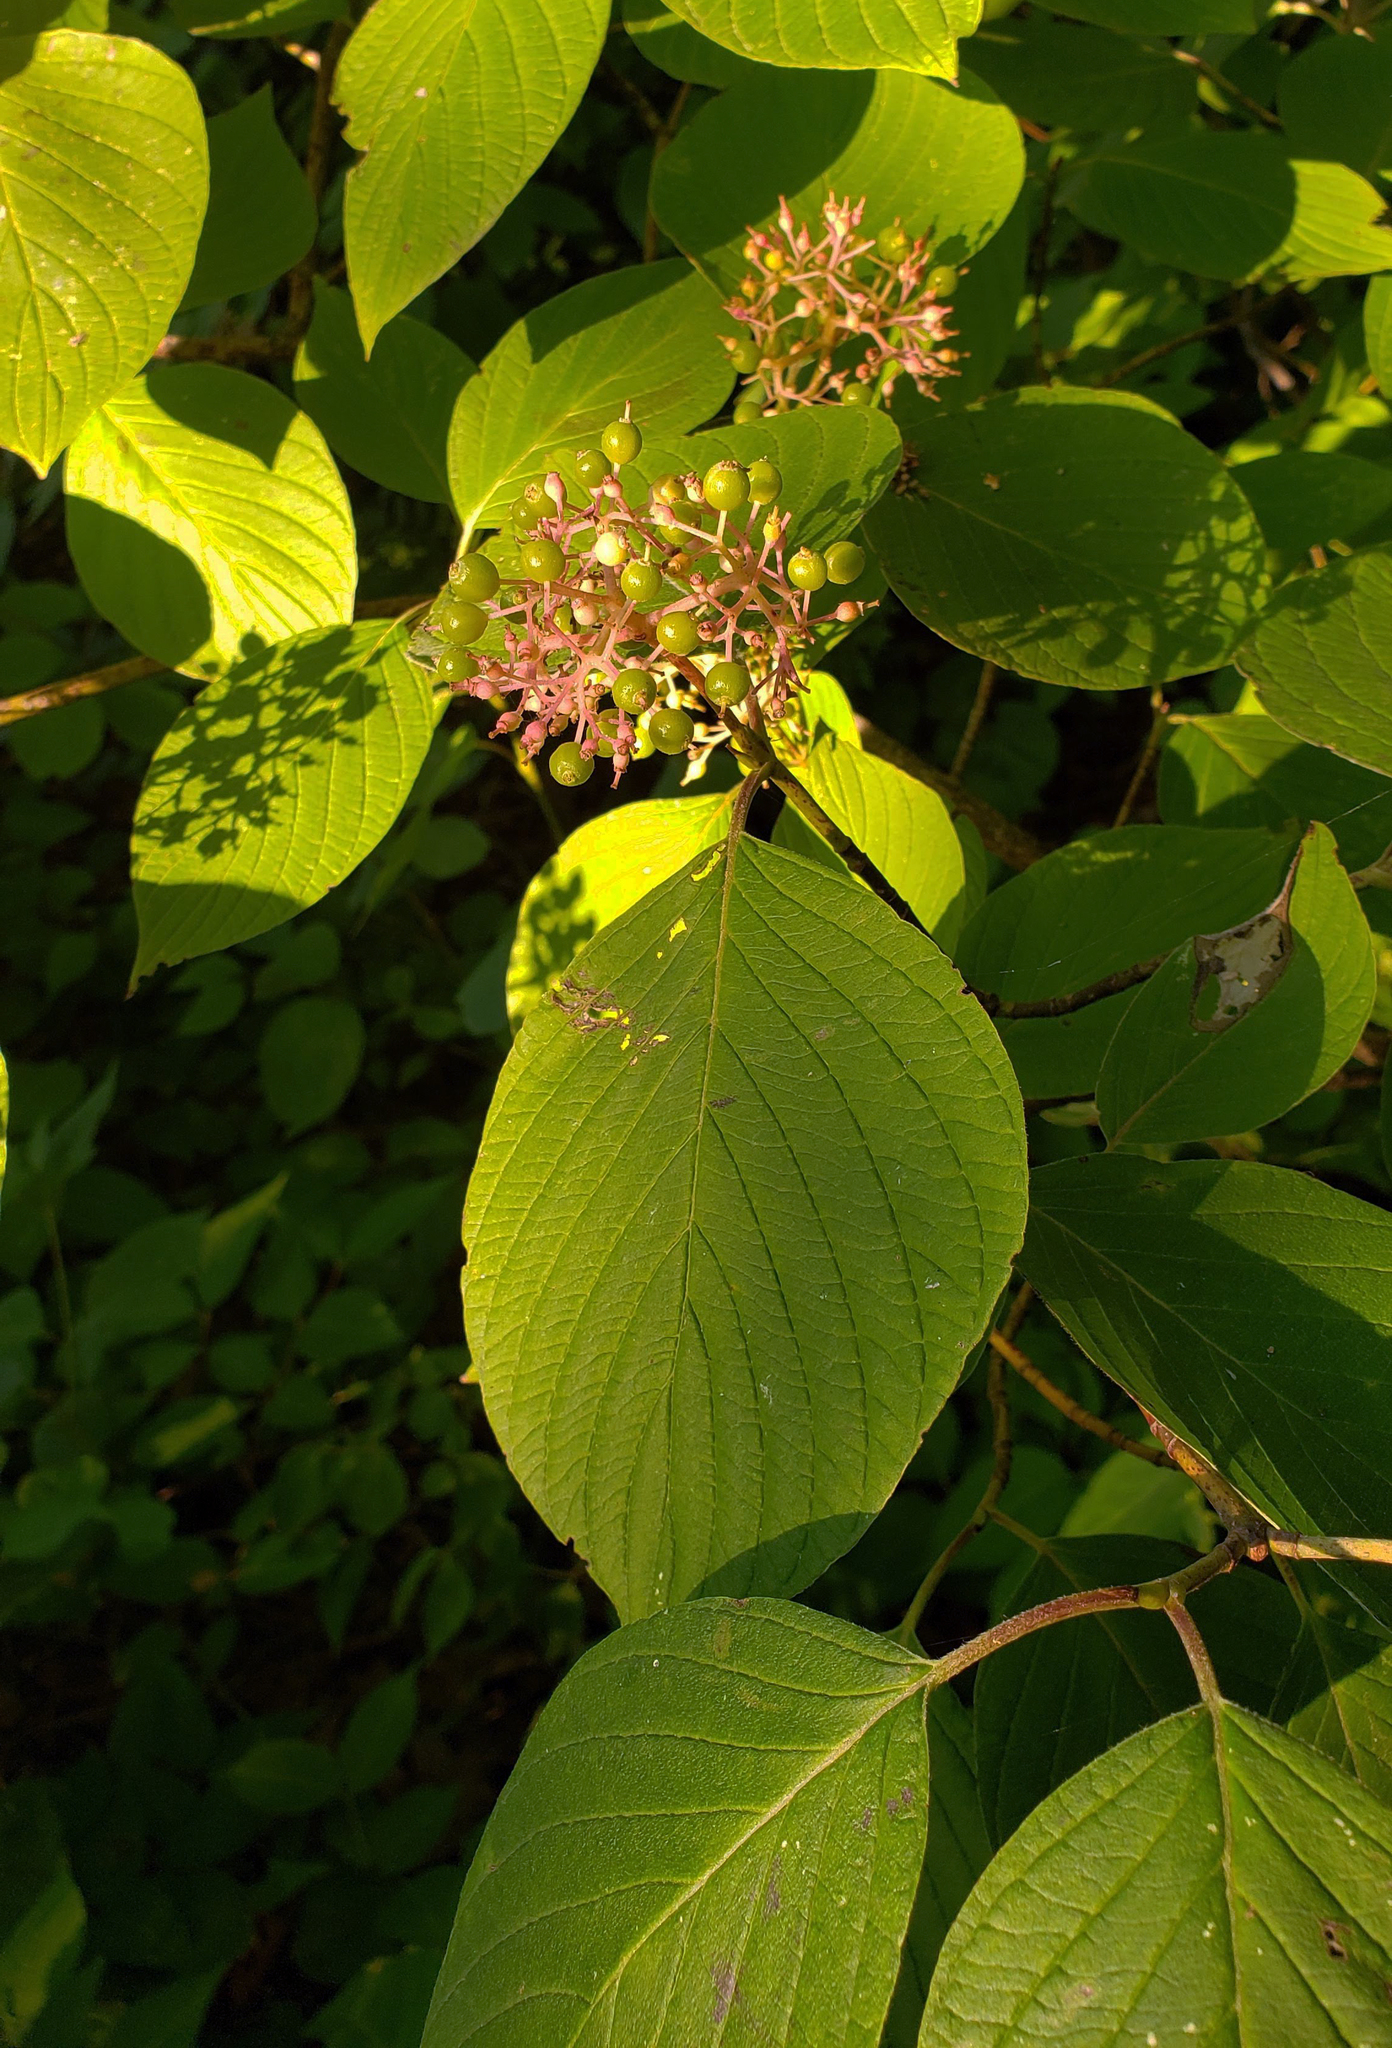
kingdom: Plantae
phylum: Tracheophyta
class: Magnoliopsida
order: Cornales
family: Cornaceae
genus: Cornus
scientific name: Cornus rugosa
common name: Round-leaf dogwood
